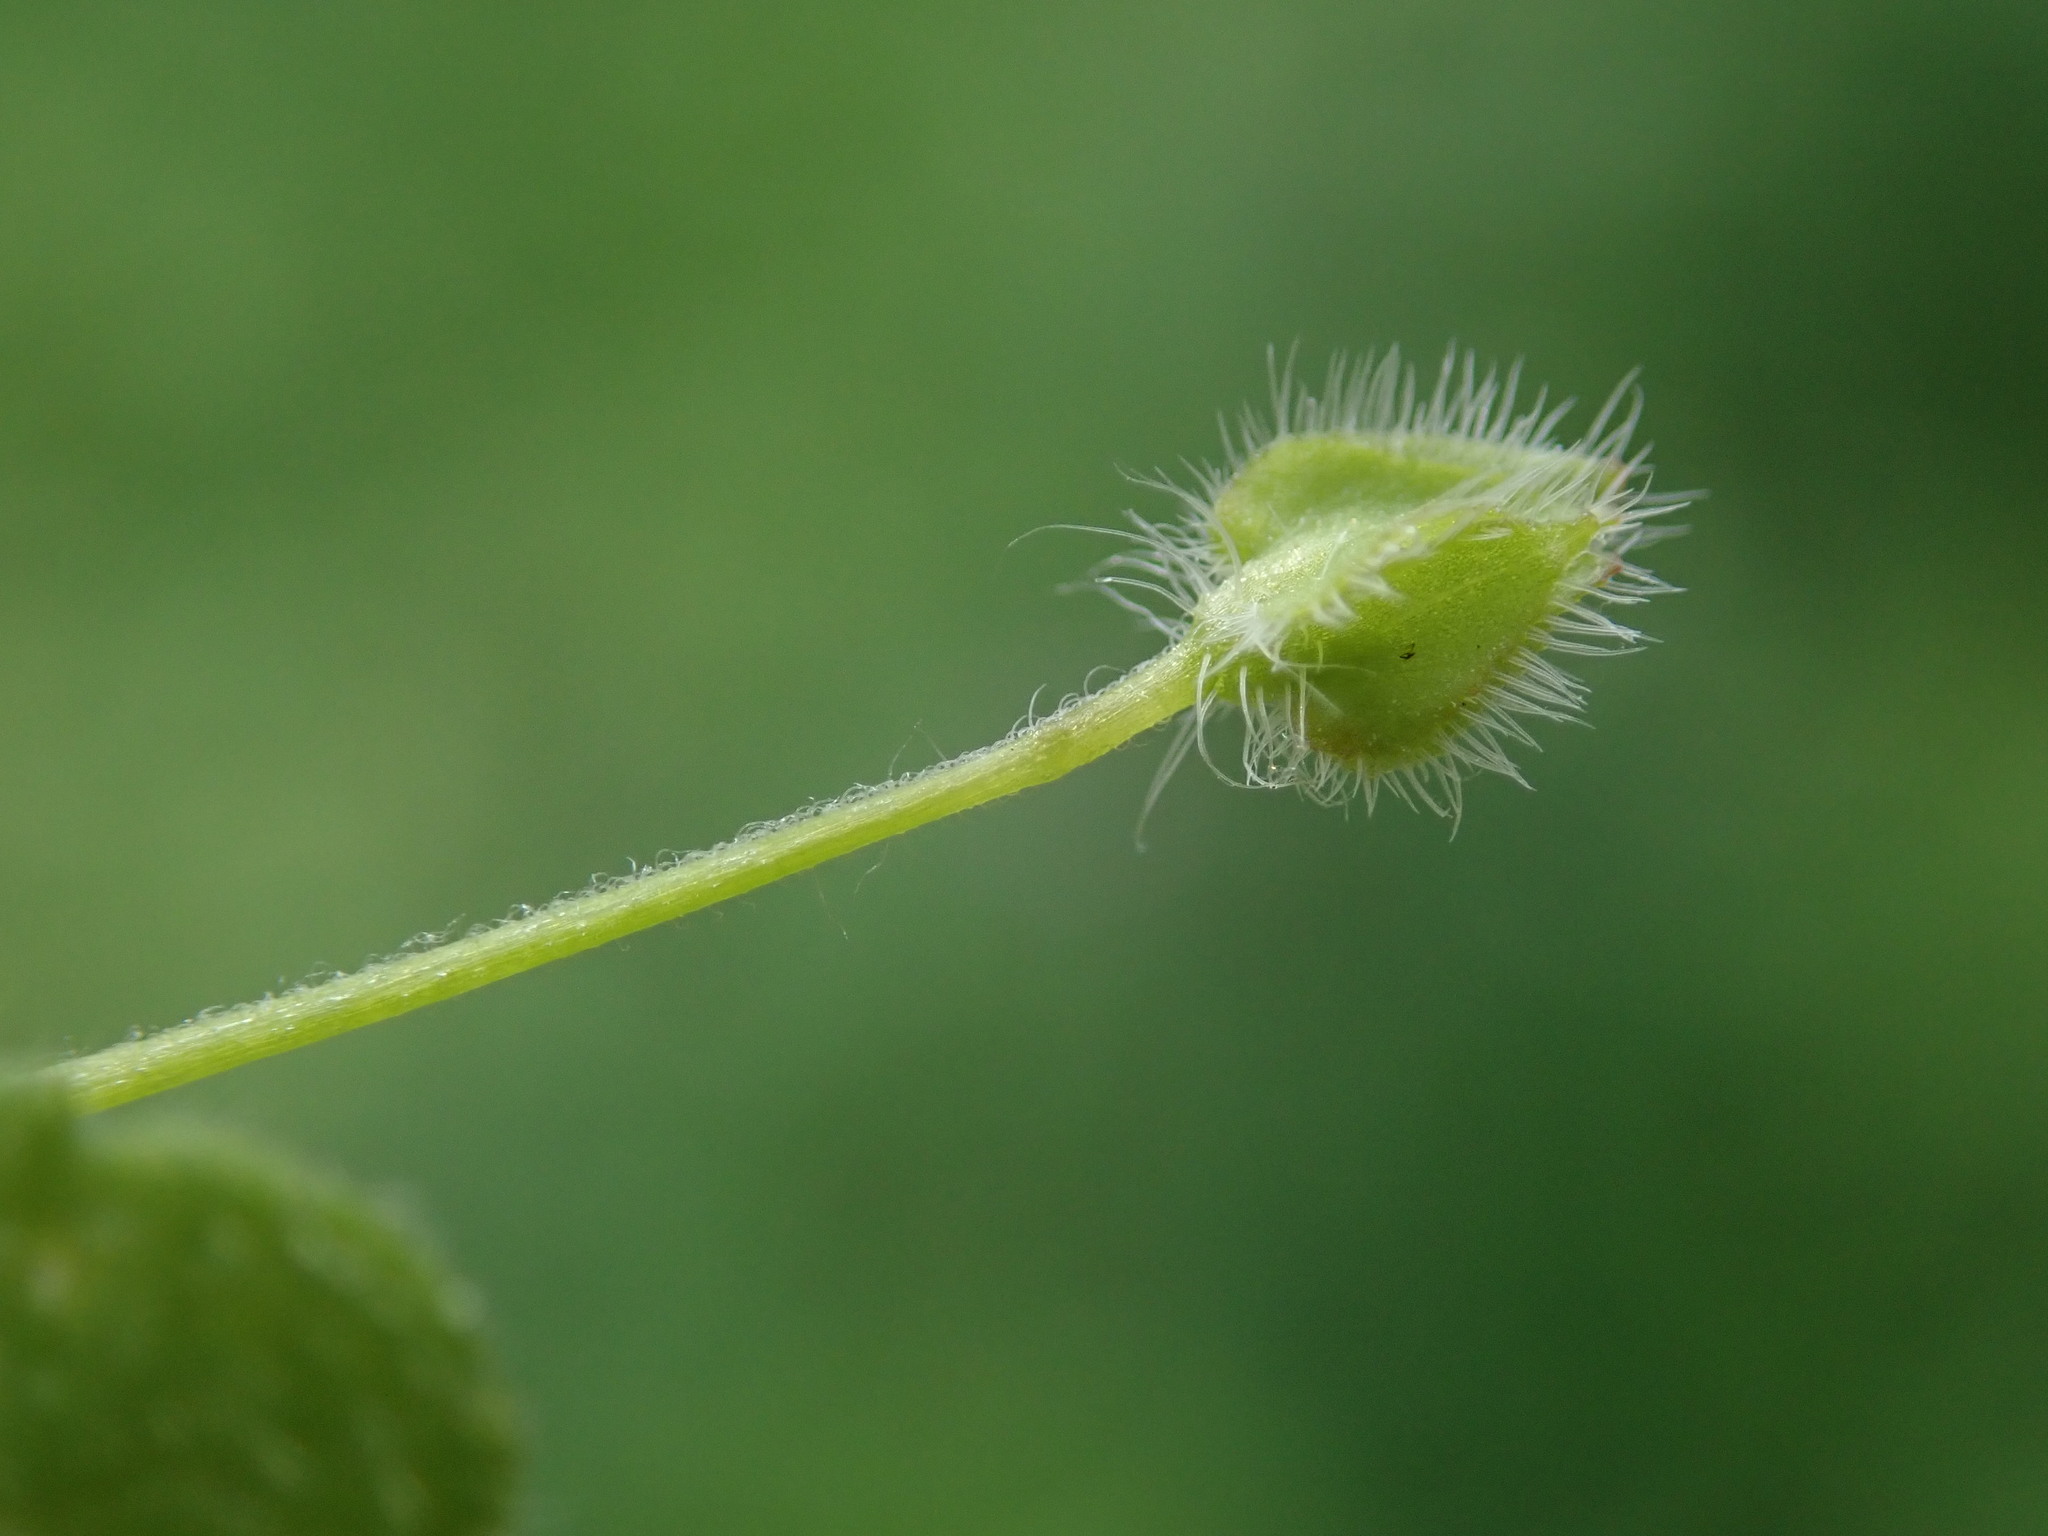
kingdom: Plantae
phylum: Tracheophyta
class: Magnoliopsida
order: Lamiales
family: Plantaginaceae
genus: Veronica
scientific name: Veronica sublobata
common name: False ivy-leaved speedwell
